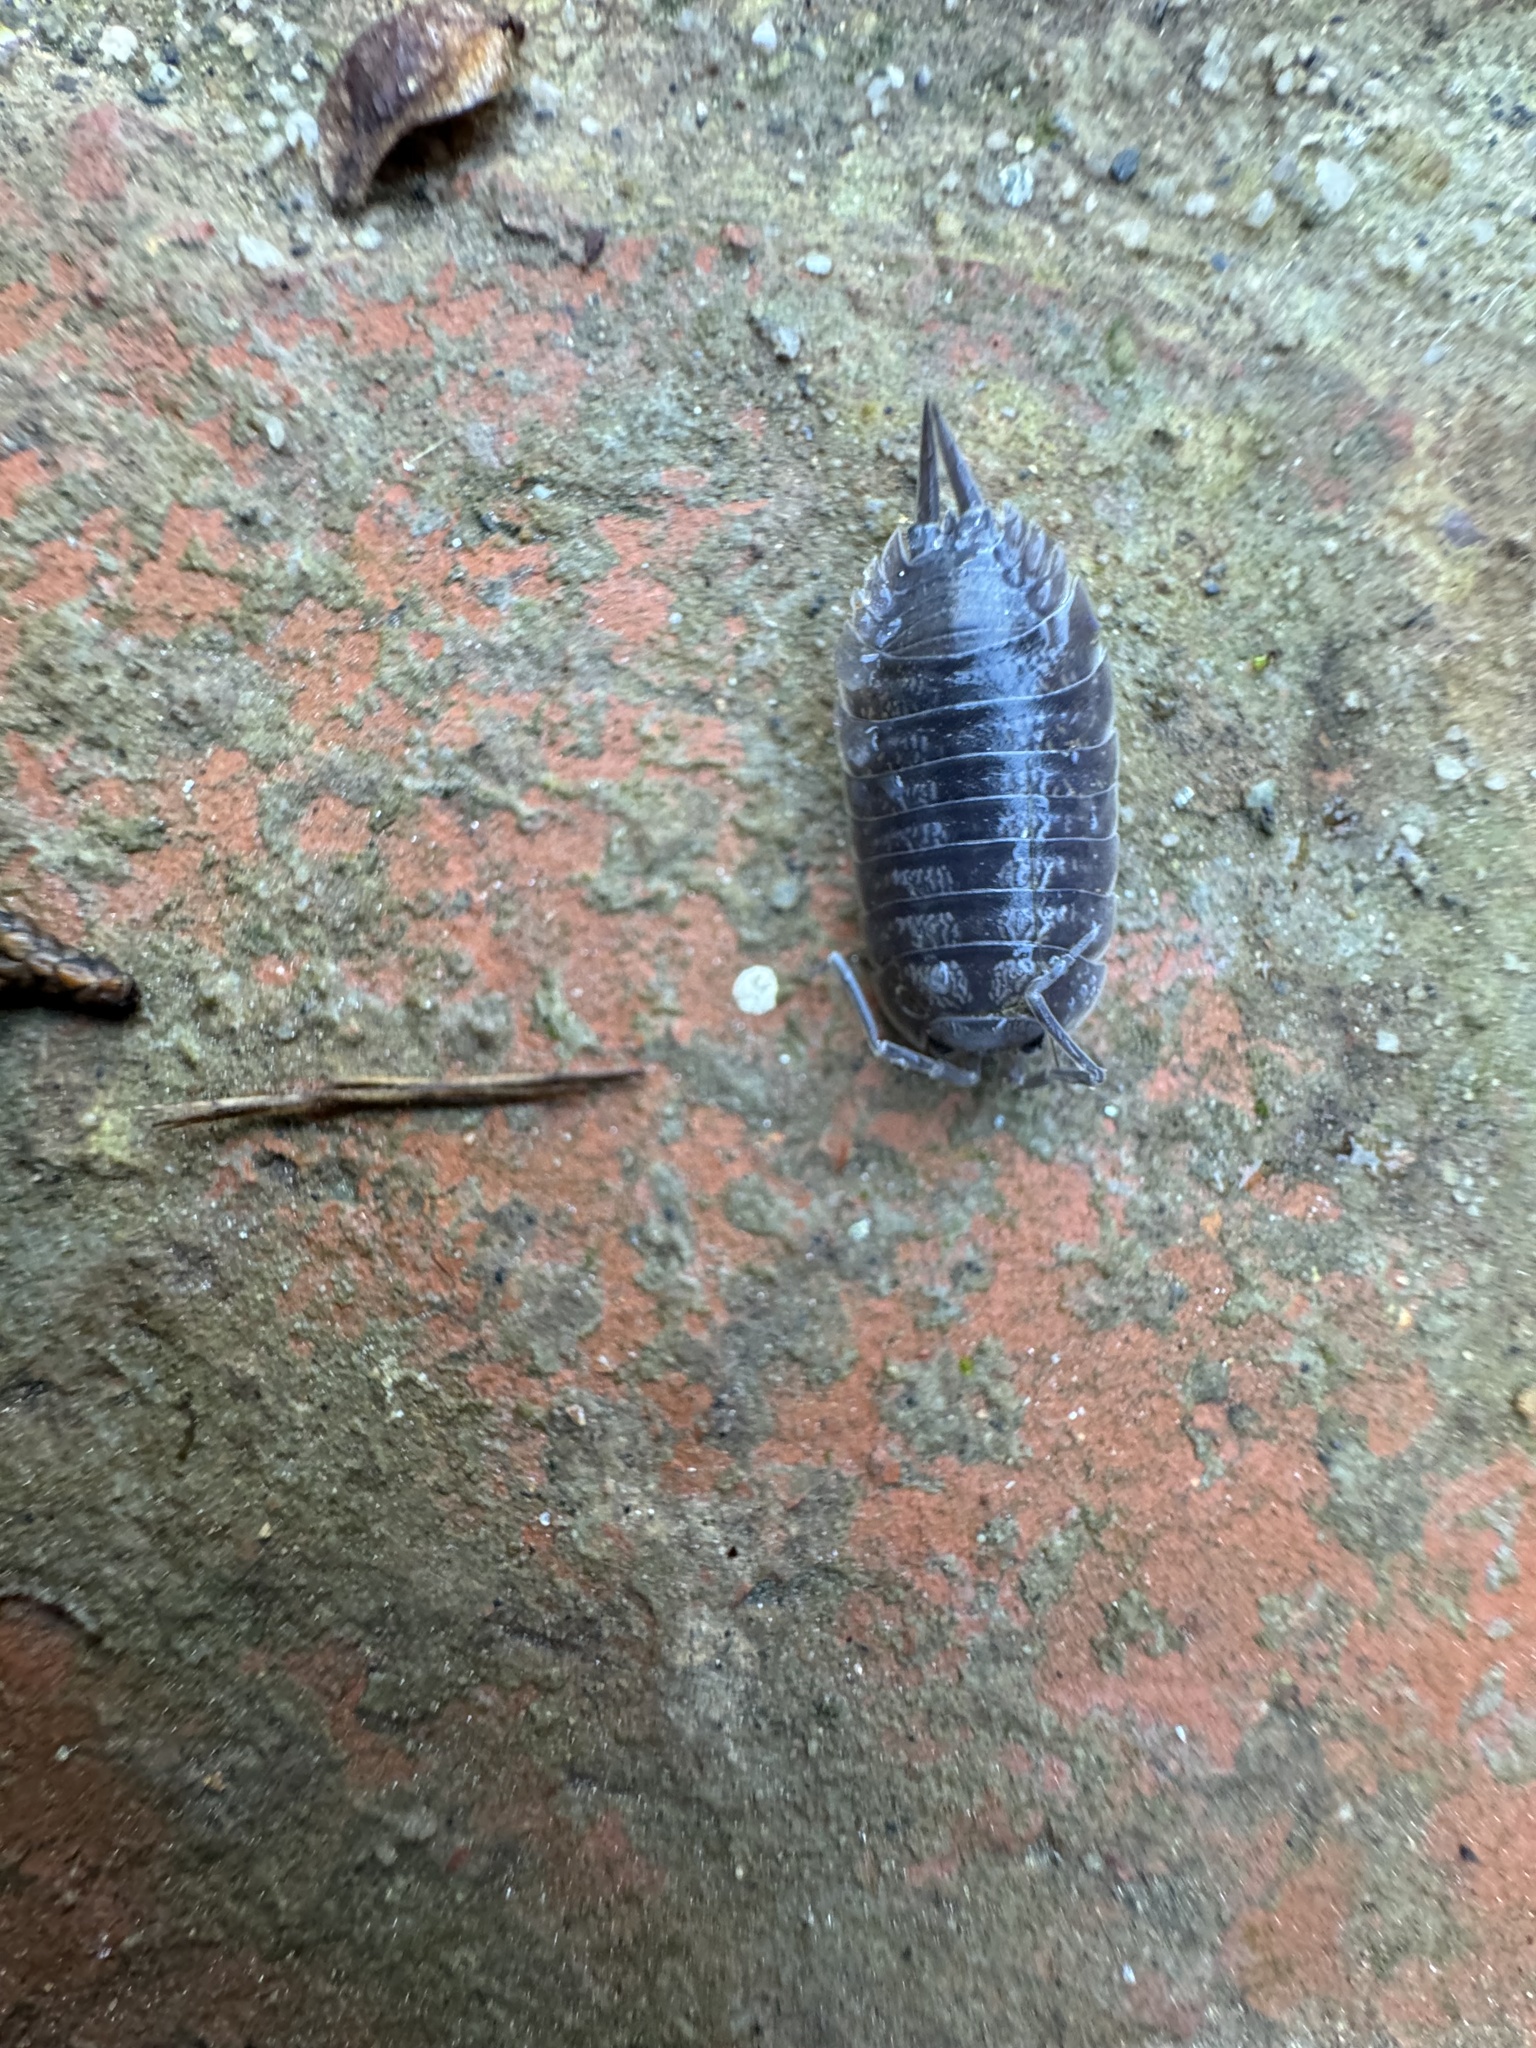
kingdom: Animalia
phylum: Arthropoda
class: Malacostraca
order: Isopoda
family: Porcellionidae
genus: Porcellio
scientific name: Porcellio laevis
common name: Swift woodlouse
